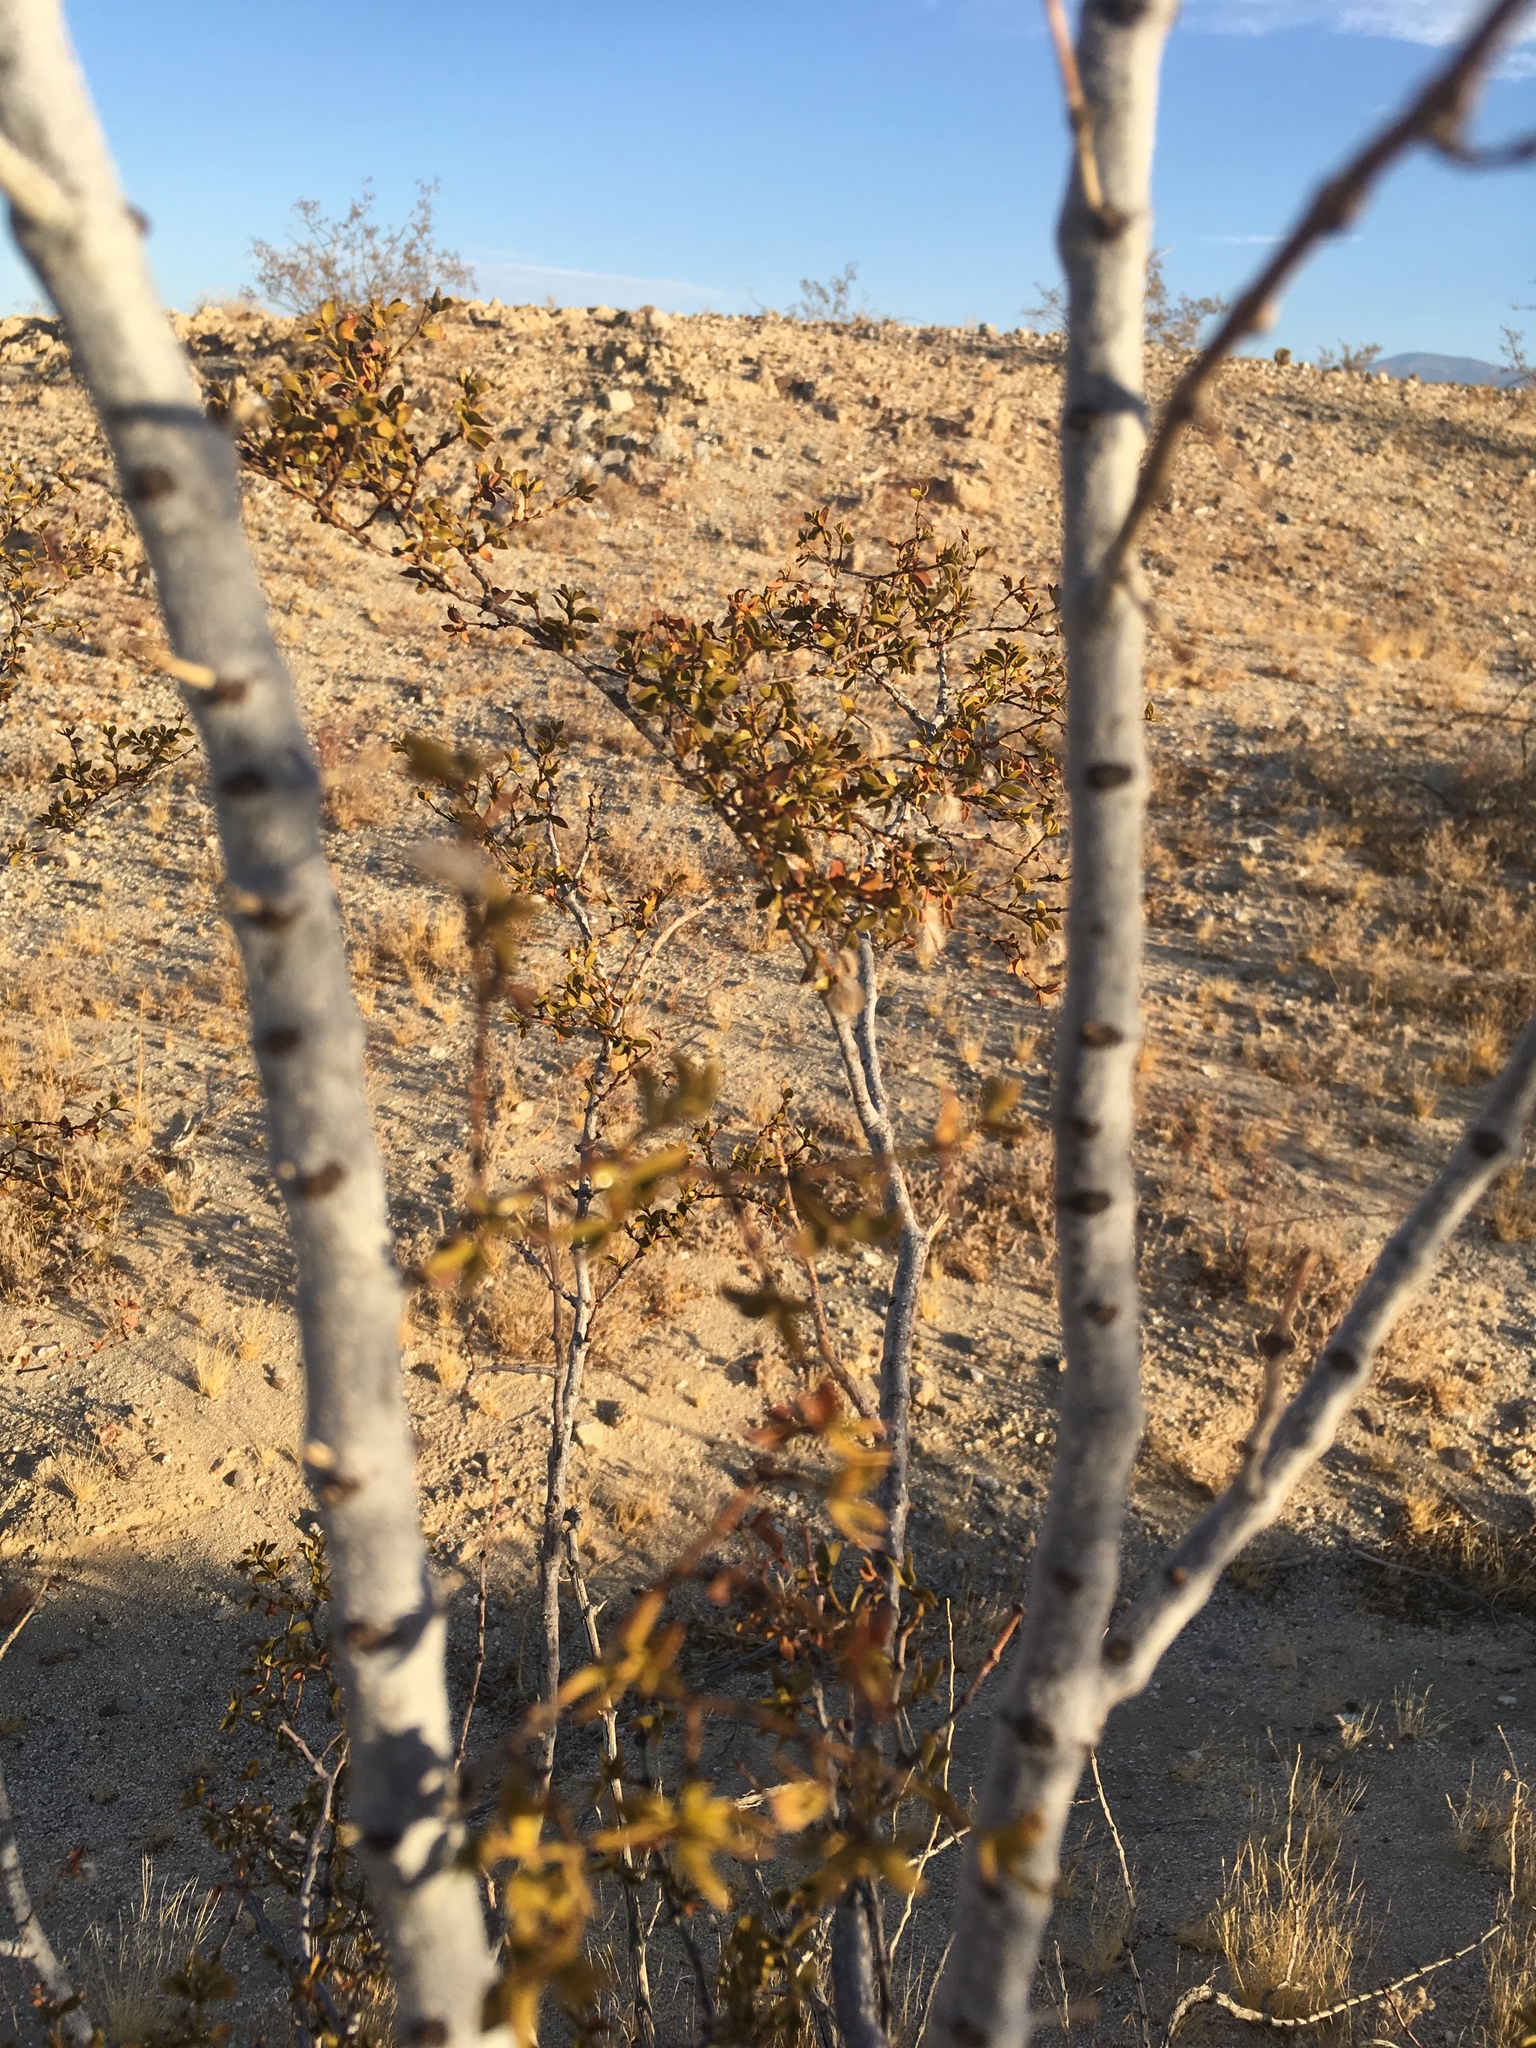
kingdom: Plantae
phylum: Tracheophyta
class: Magnoliopsida
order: Zygophyllales
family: Zygophyllaceae
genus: Larrea
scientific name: Larrea tridentata
